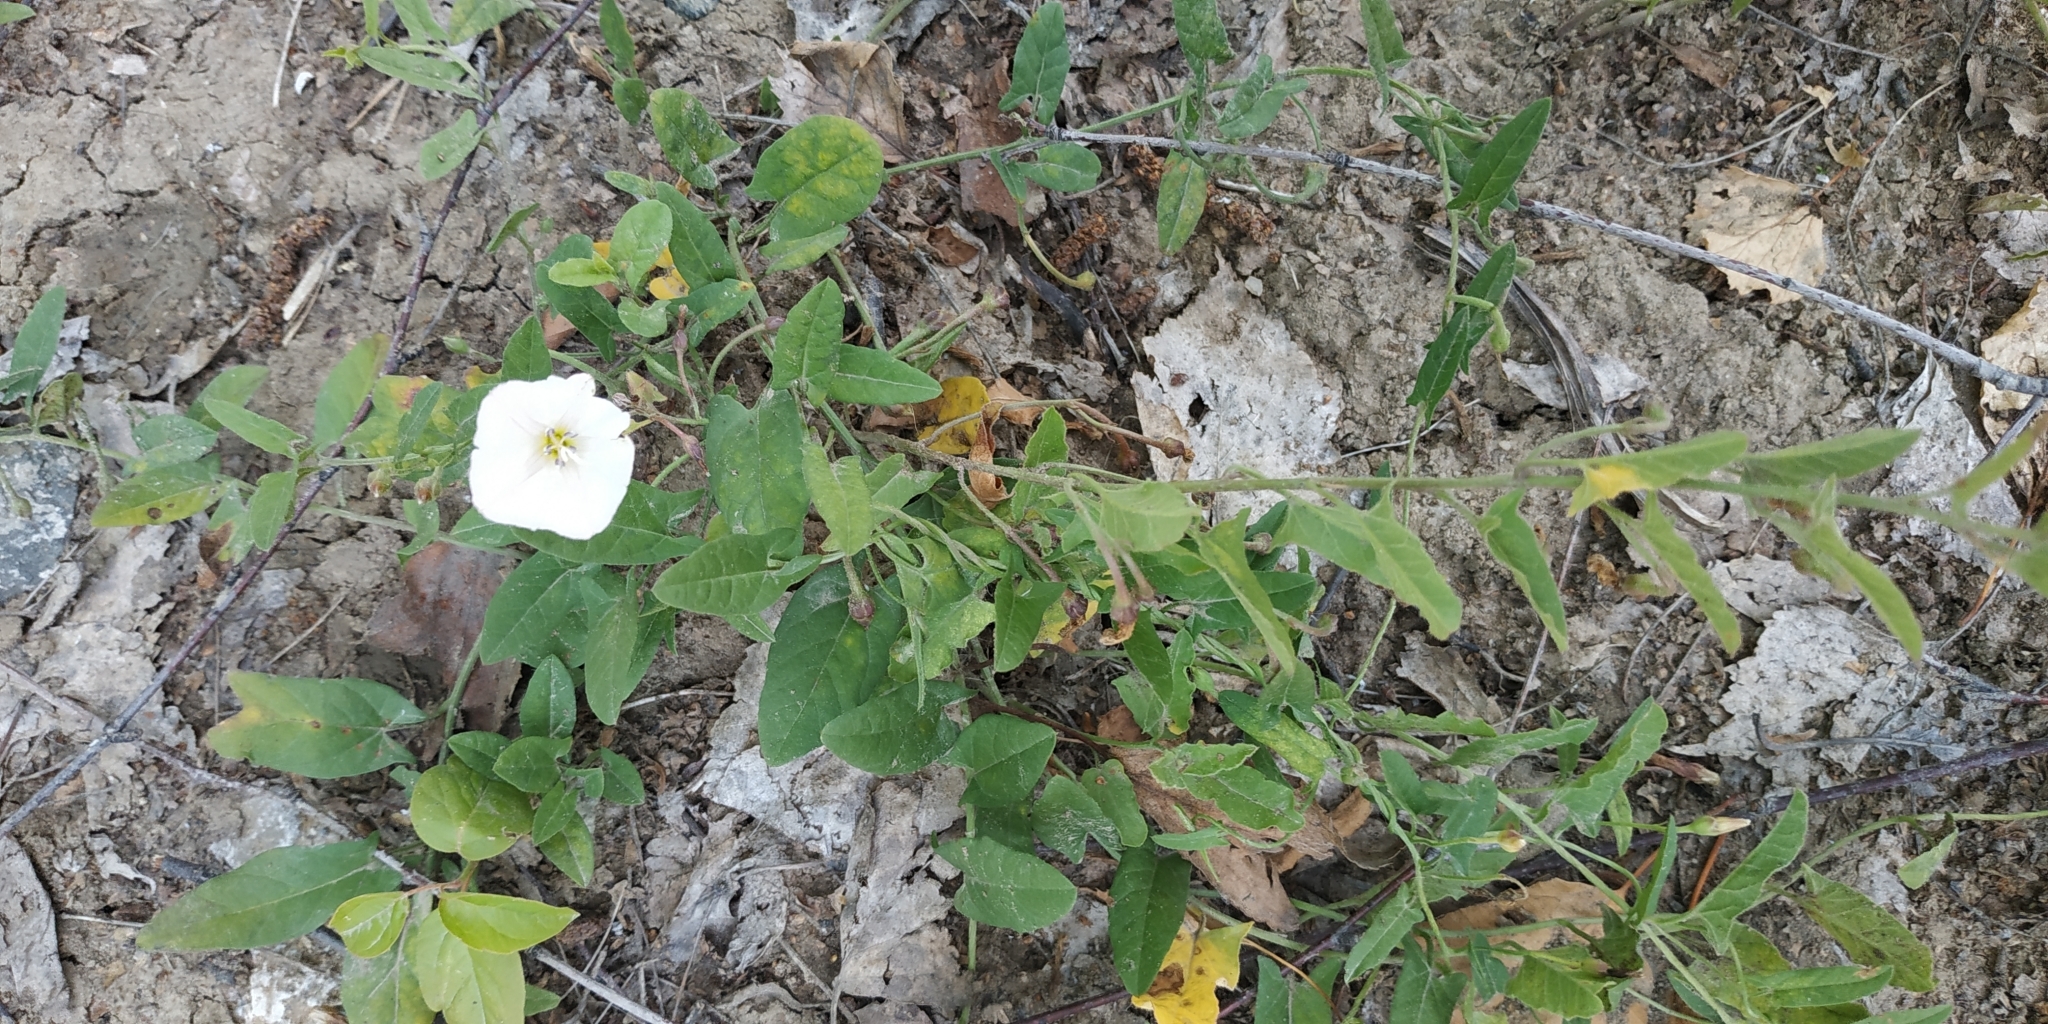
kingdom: Plantae
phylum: Tracheophyta
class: Magnoliopsida
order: Solanales
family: Convolvulaceae
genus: Convolvulus
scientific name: Convolvulus arvensis
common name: Field bindweed
